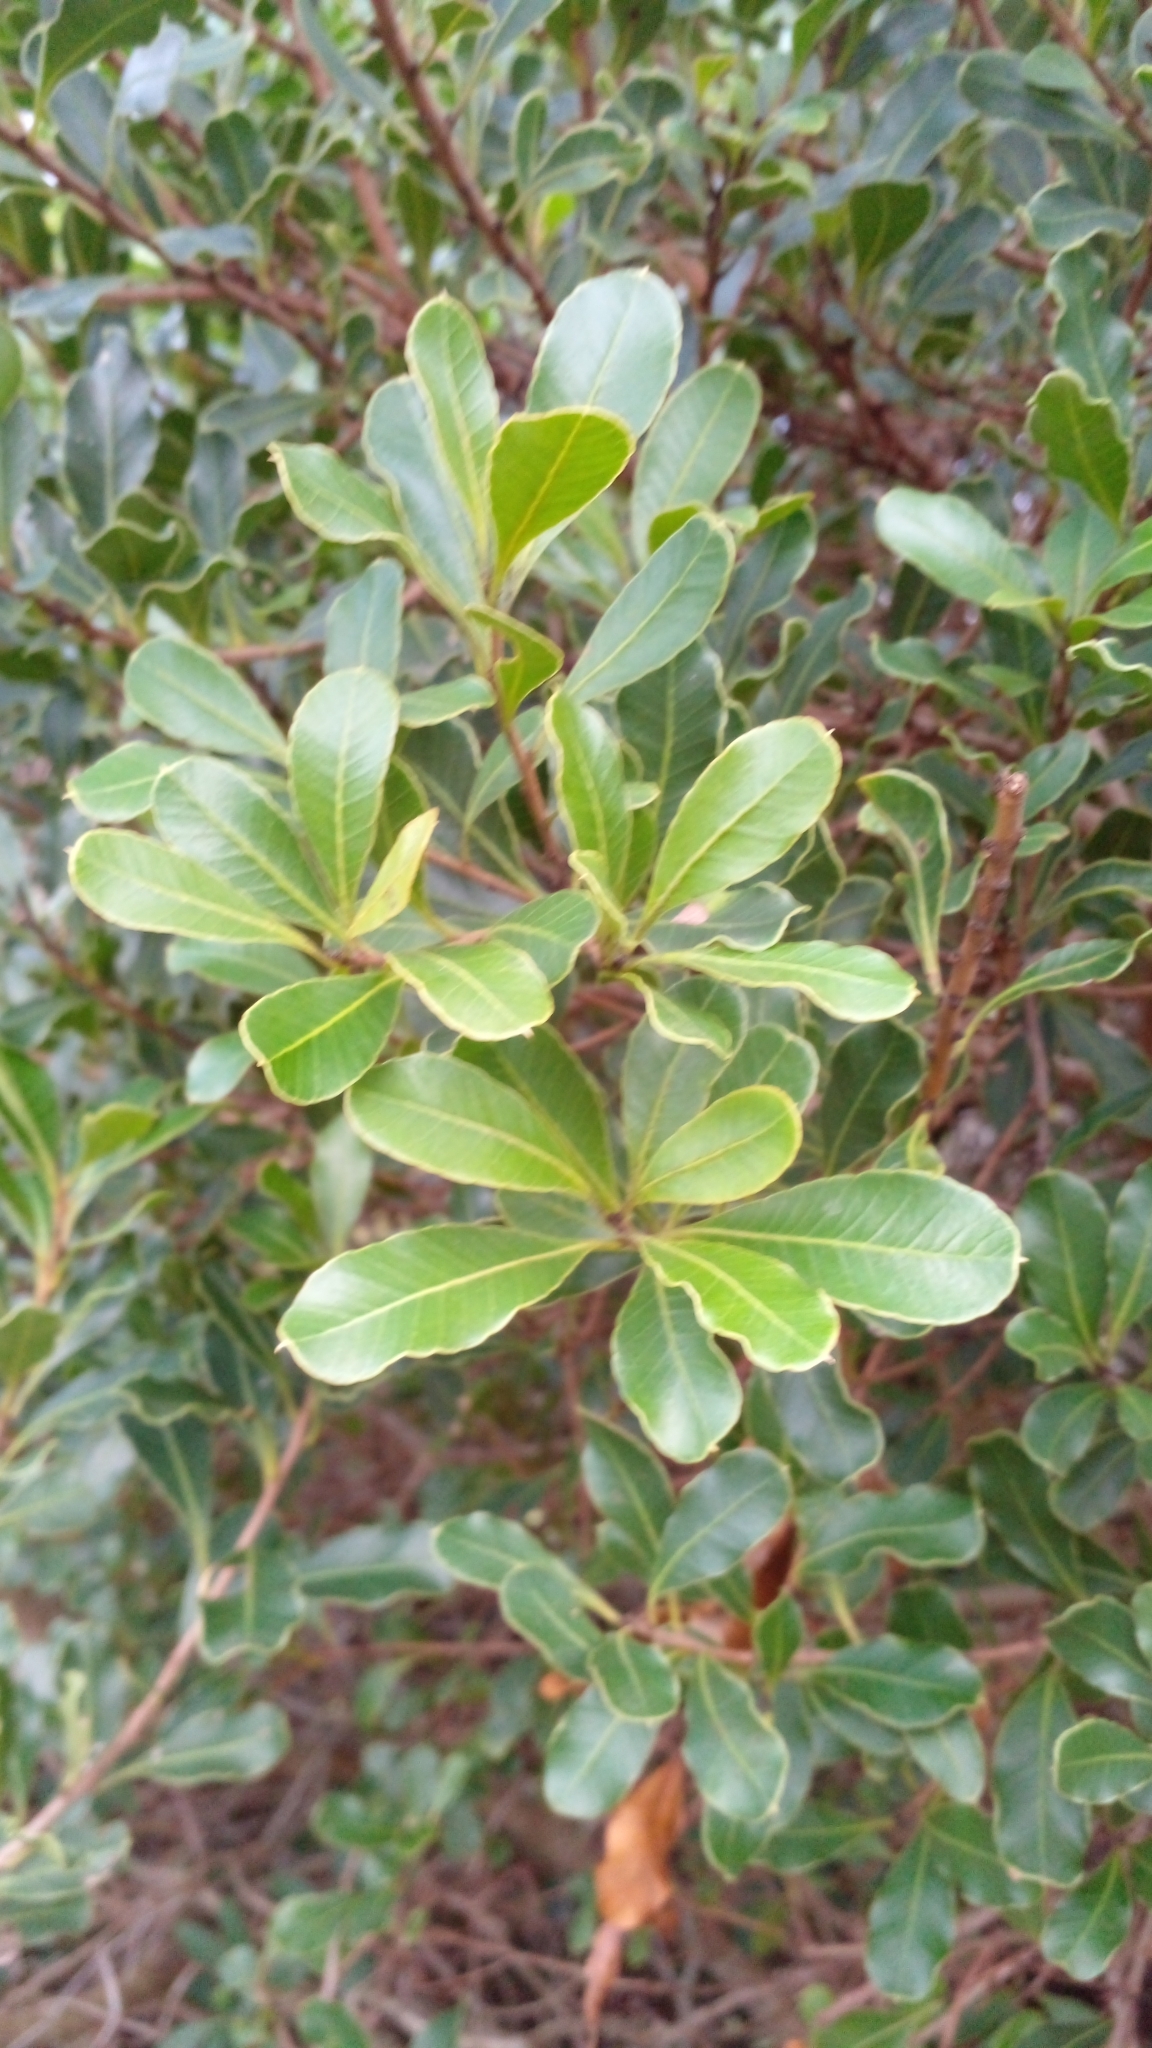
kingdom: Plantae
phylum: Tracheophyta
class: Magnoliopsida
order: Sapindales
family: Anacardiaceae
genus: Lithraea
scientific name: Lithraea brasiliensis
